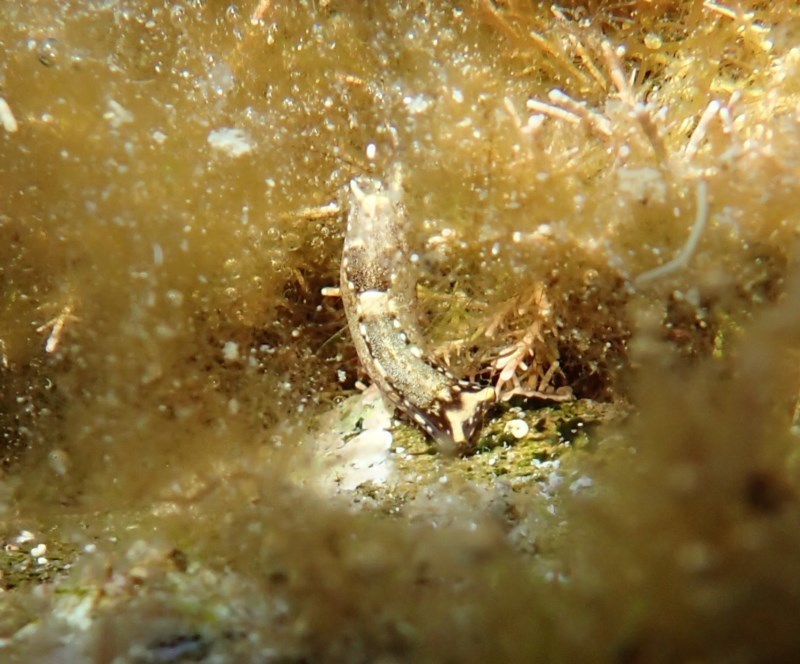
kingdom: Animalia
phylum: Mollusca
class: Gastropoda
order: Cephalaspidea
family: Aglajidae
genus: Biuve
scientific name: Biuve fulvipunctata
